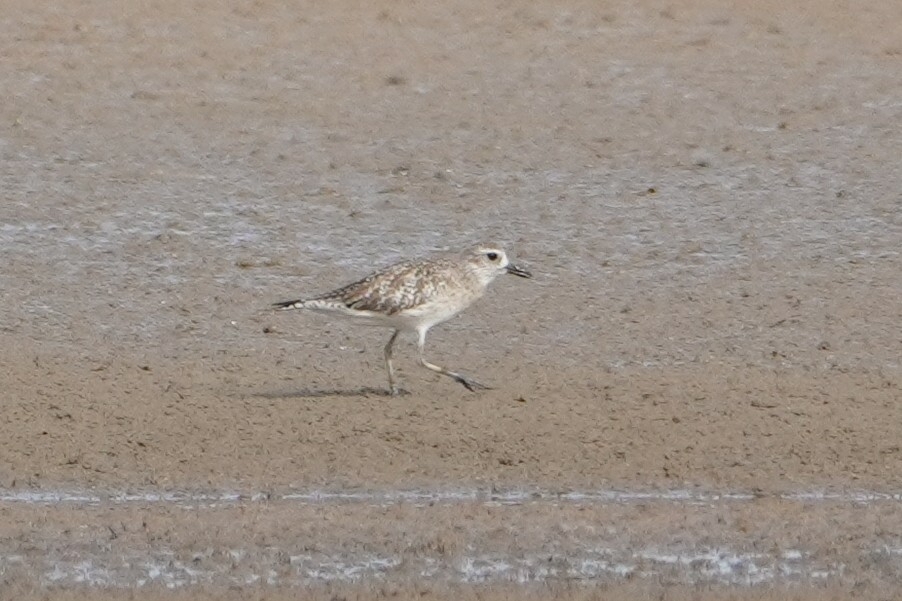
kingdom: Animalia
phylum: Chordata
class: Aves
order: Charadriiformes
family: Charadriidae
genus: Pluvialis
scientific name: Pluvialis squatarola
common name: Grey plover
